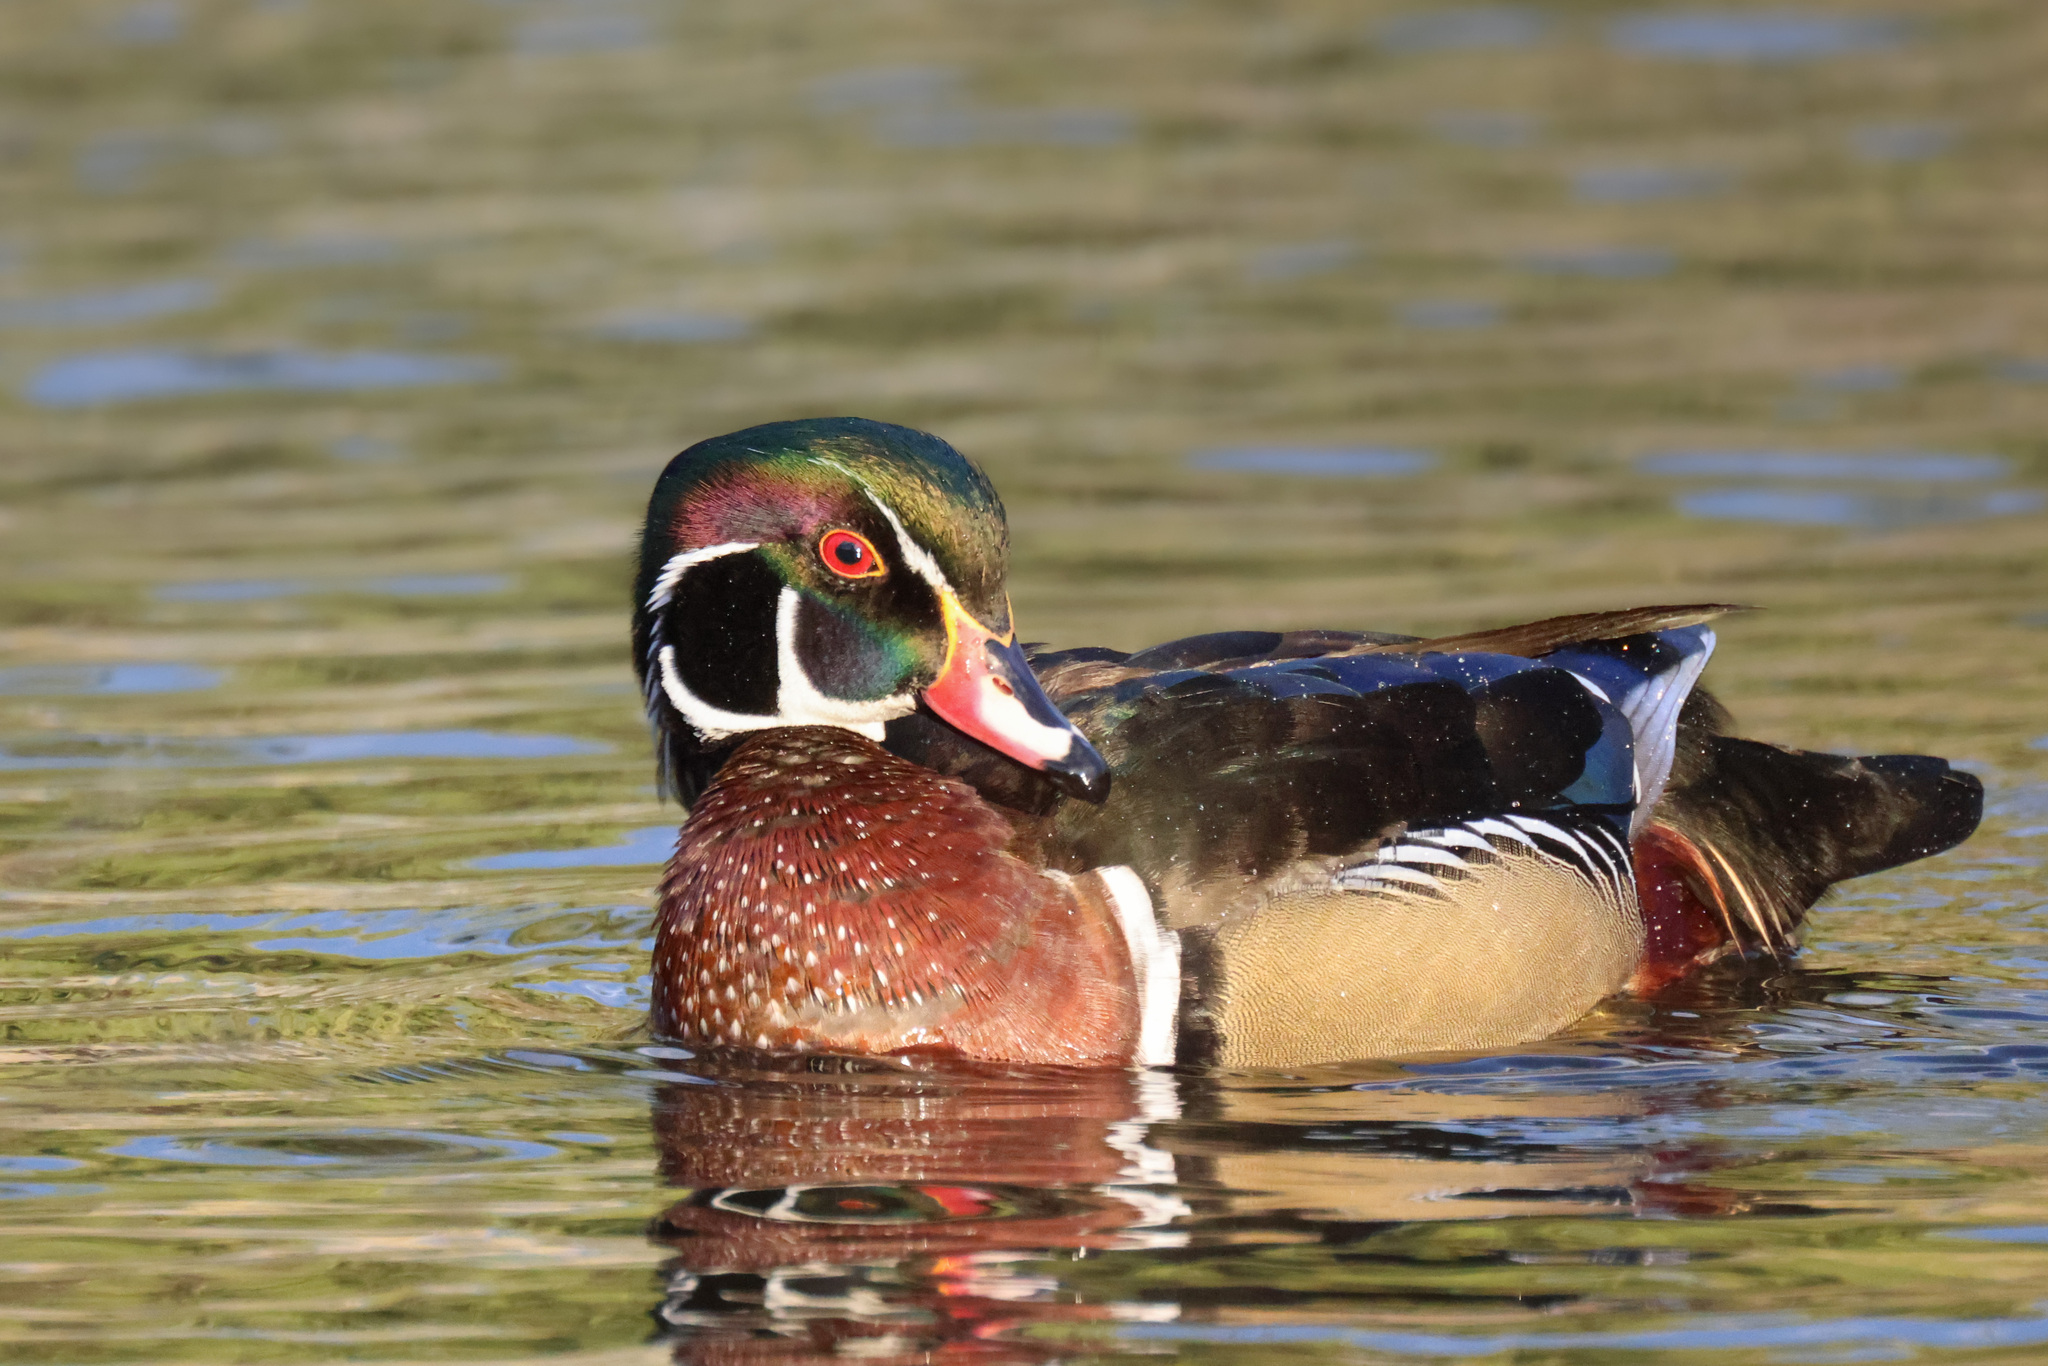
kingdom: Animalia
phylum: Chordata
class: Aves
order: Anseriformes
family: Anatidae
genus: Aix
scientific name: Aix sponsa
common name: Wood duck
